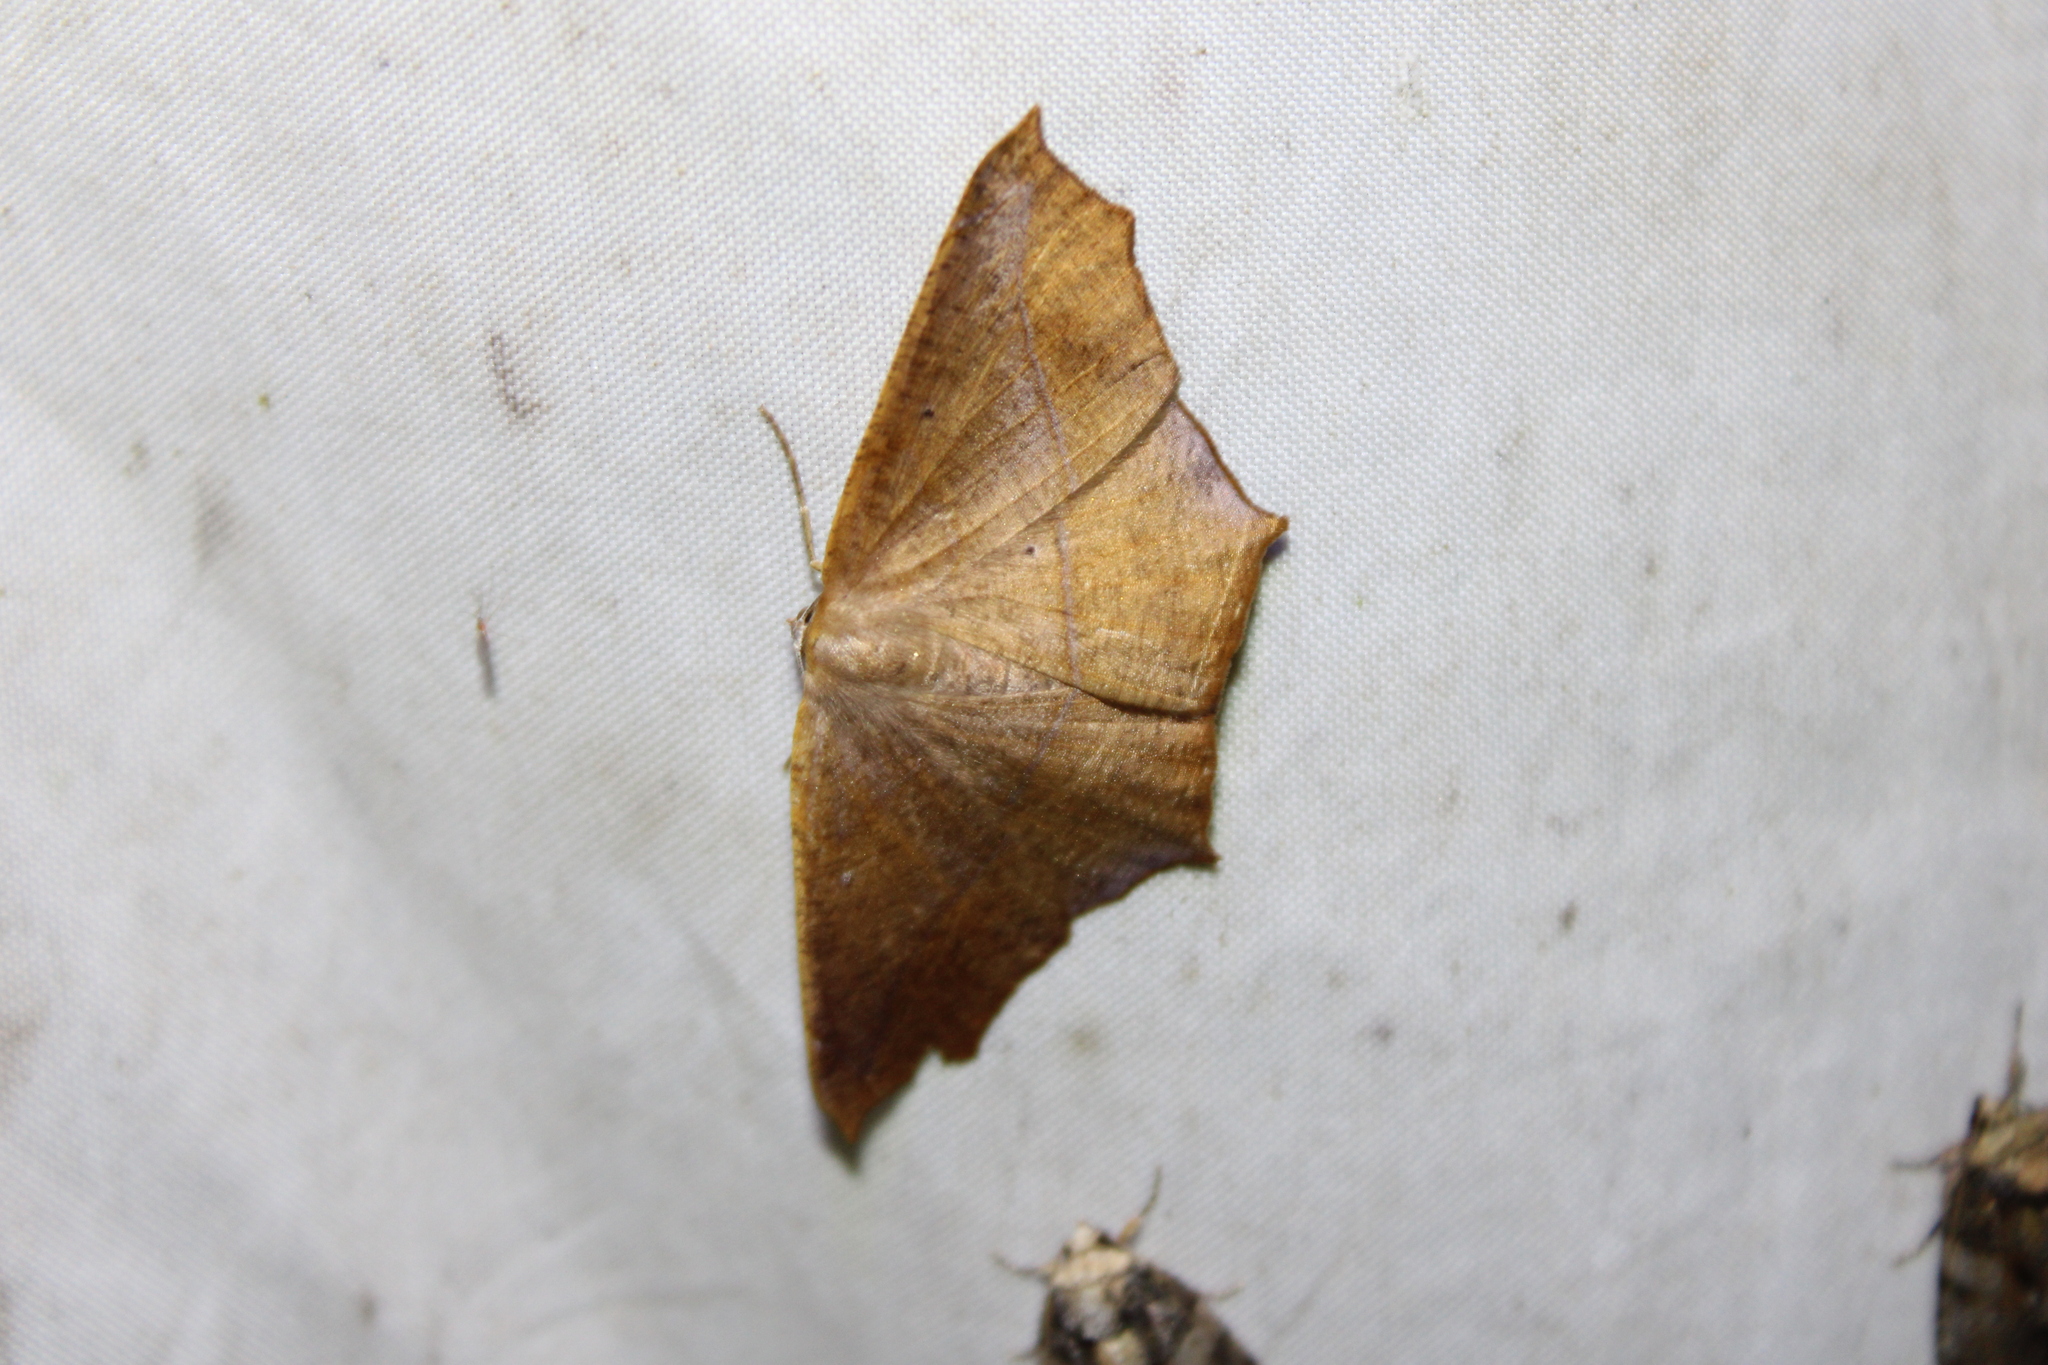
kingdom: Animalia
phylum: Arthropoda
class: Insecta
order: Lepidoptera
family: Geometridae
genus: Prochoerodes
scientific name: Prochoerodes lineola
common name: Large maple spanworm
